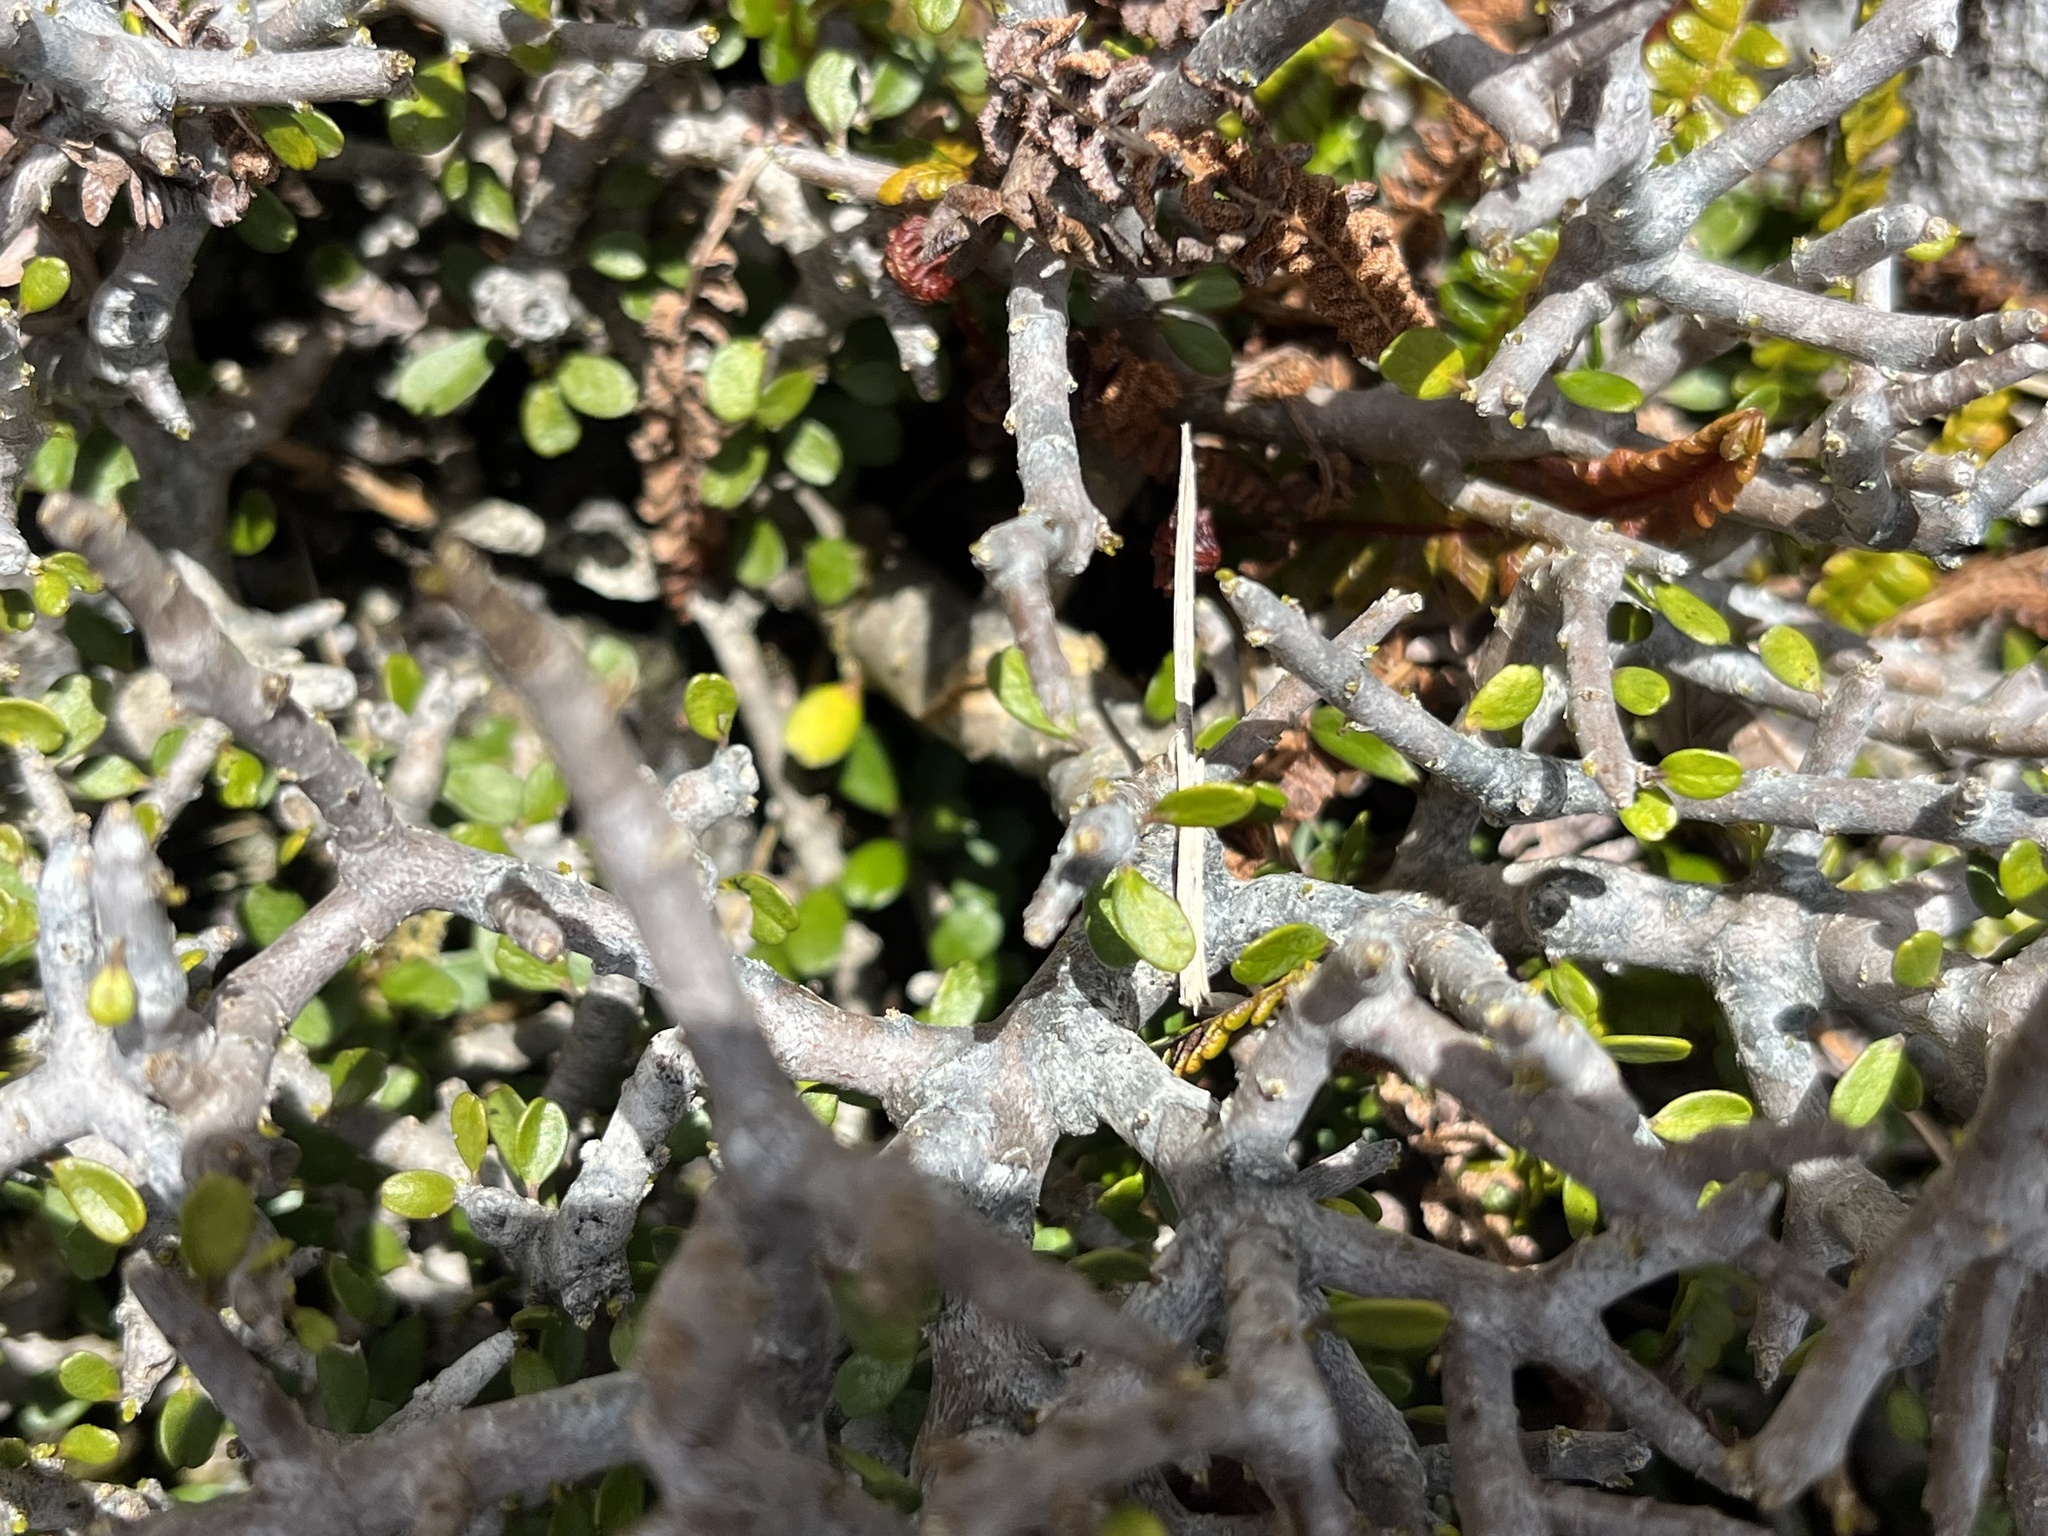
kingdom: Plantae
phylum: Tracheophyta
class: Magnoliopsida
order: Malpighiales
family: Violaceae
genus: Melicytus
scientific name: Melicytus alpinus
